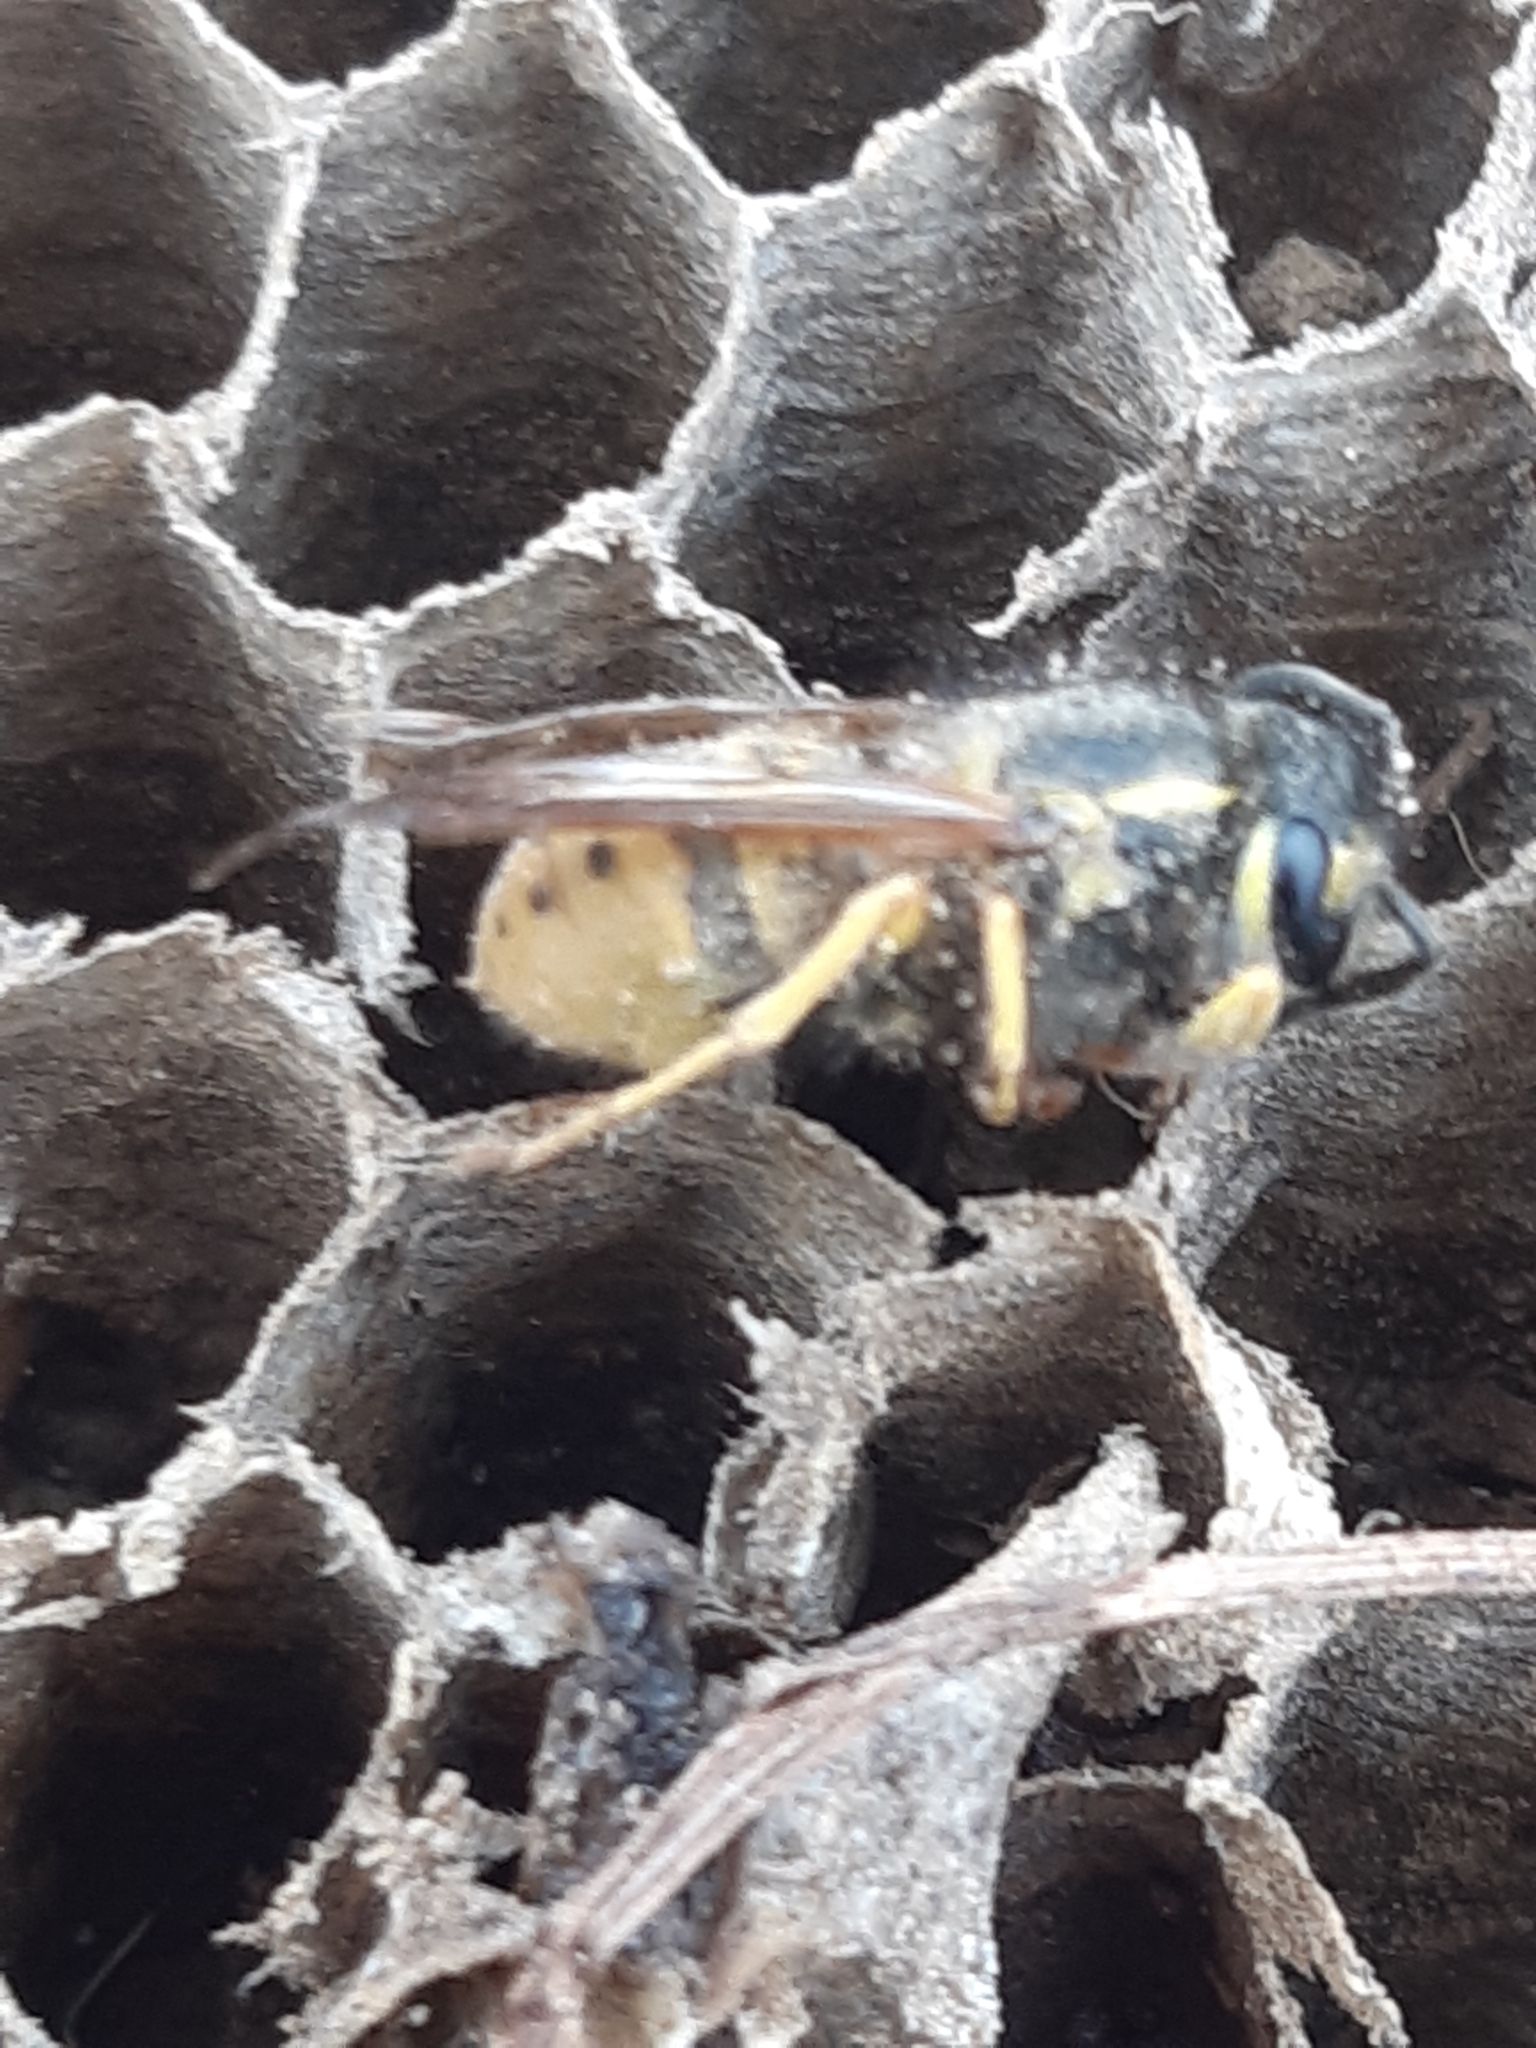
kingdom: Animalia
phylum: Arthropoda
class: Insecta
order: Hymenoptera
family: Vespidae
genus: Vespula
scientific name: Vespula germanica
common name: German wasp
